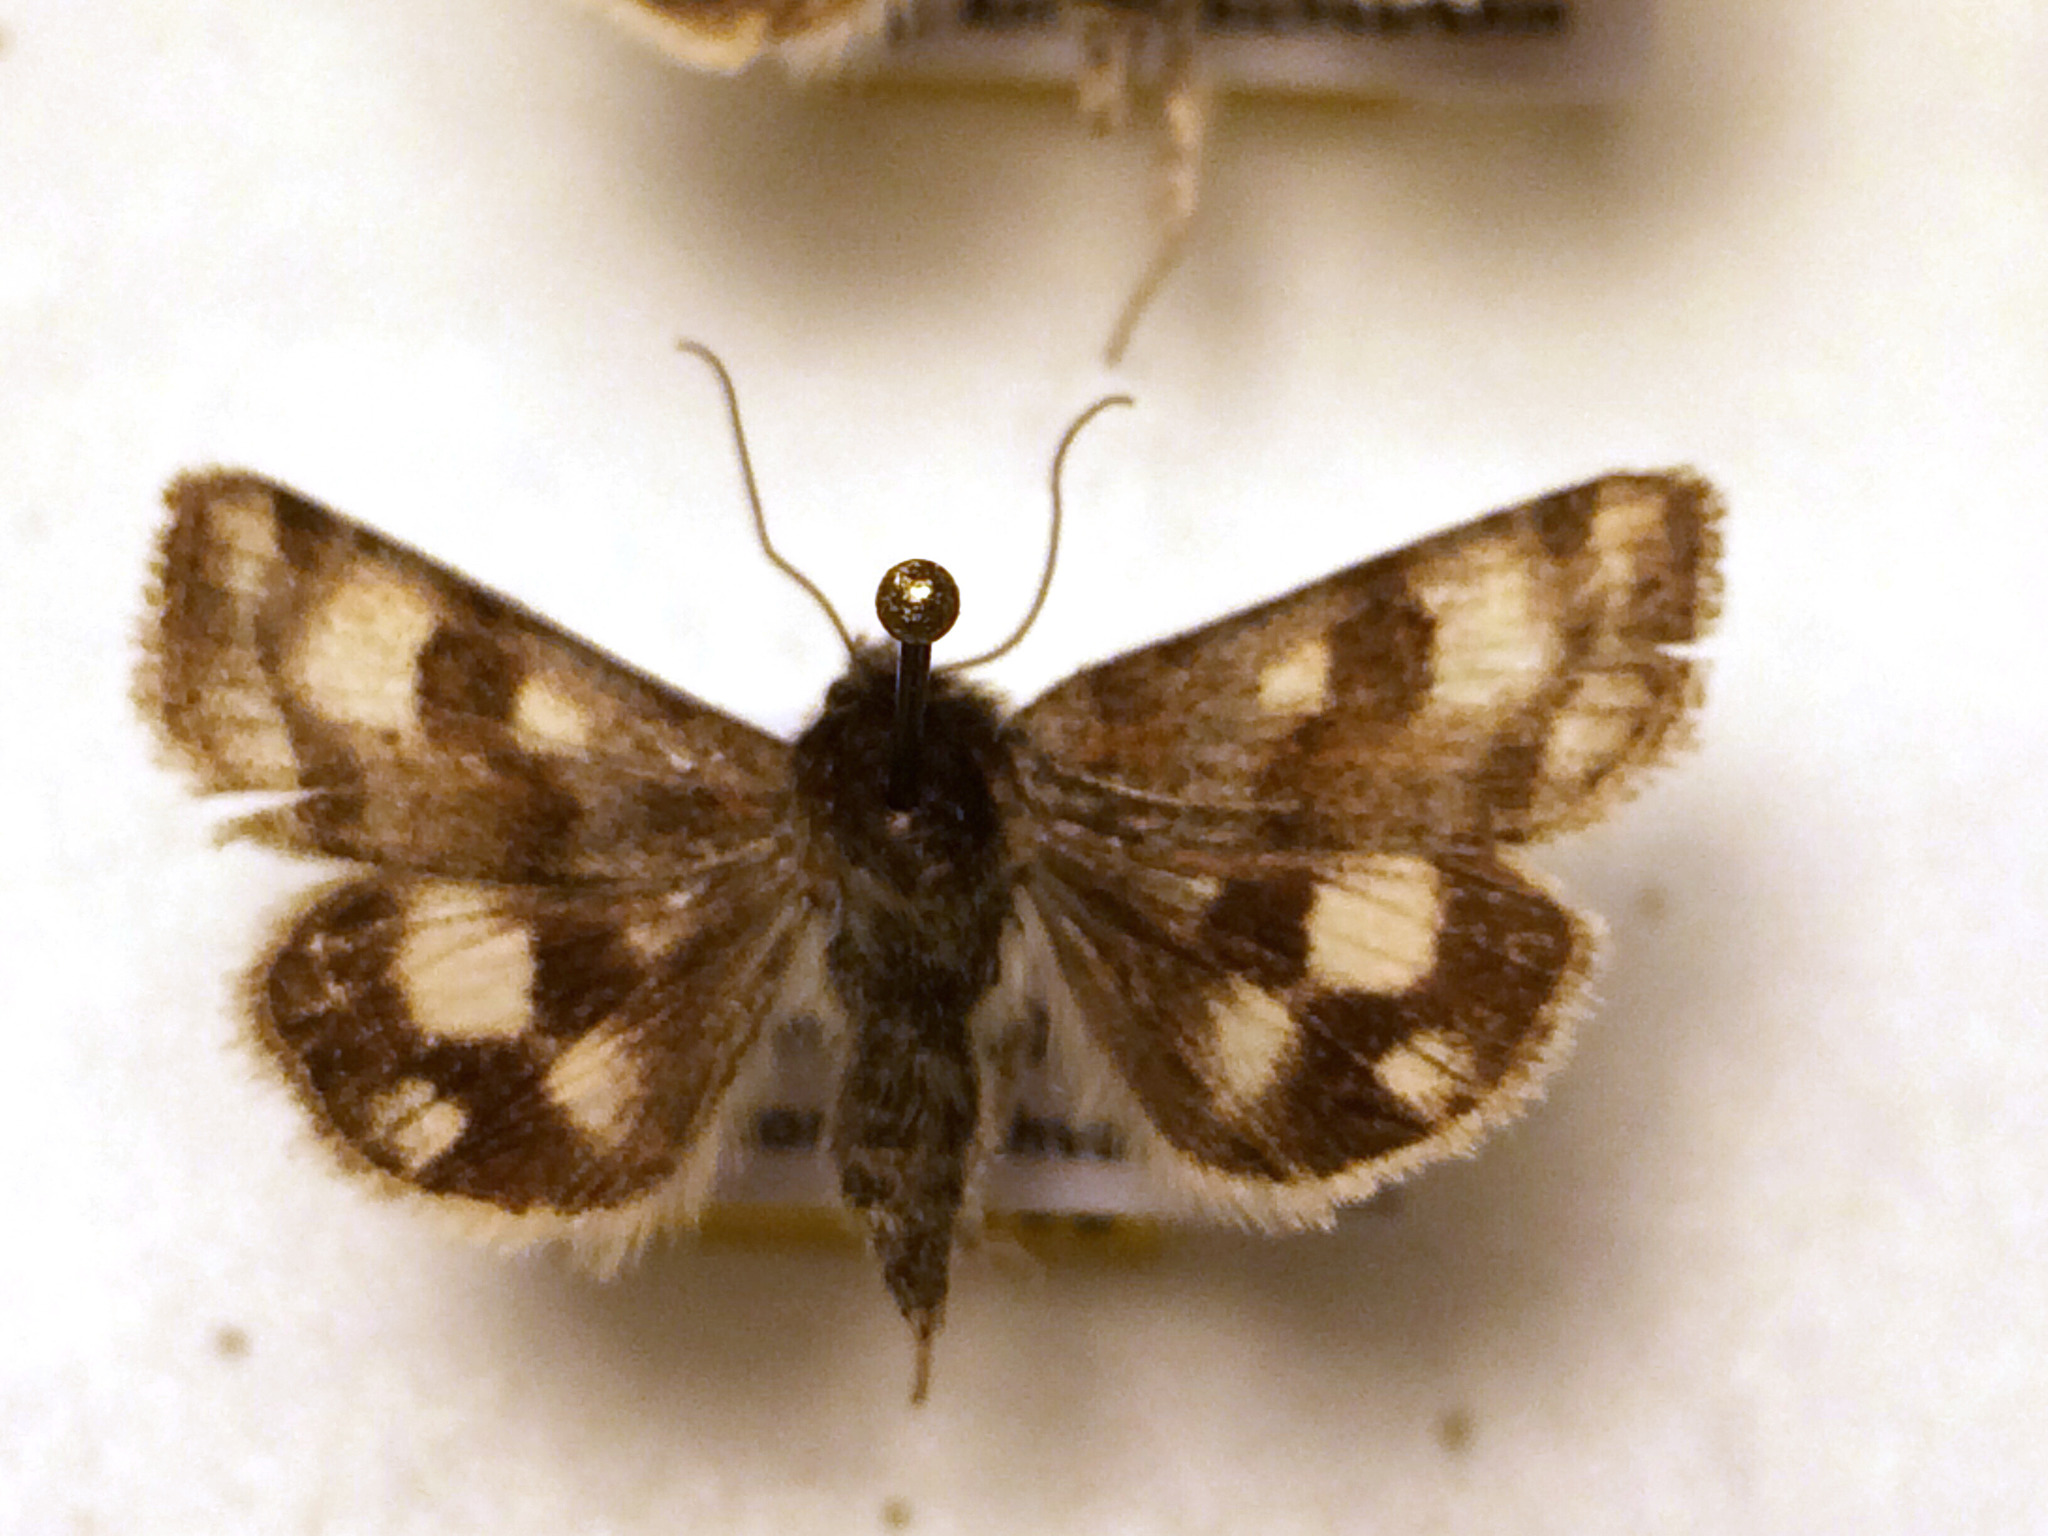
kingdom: Animalia
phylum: Arthropoda
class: Insecta
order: Lepidoptera
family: Noctuidae
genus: Heliothis
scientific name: Heliothis ononis
